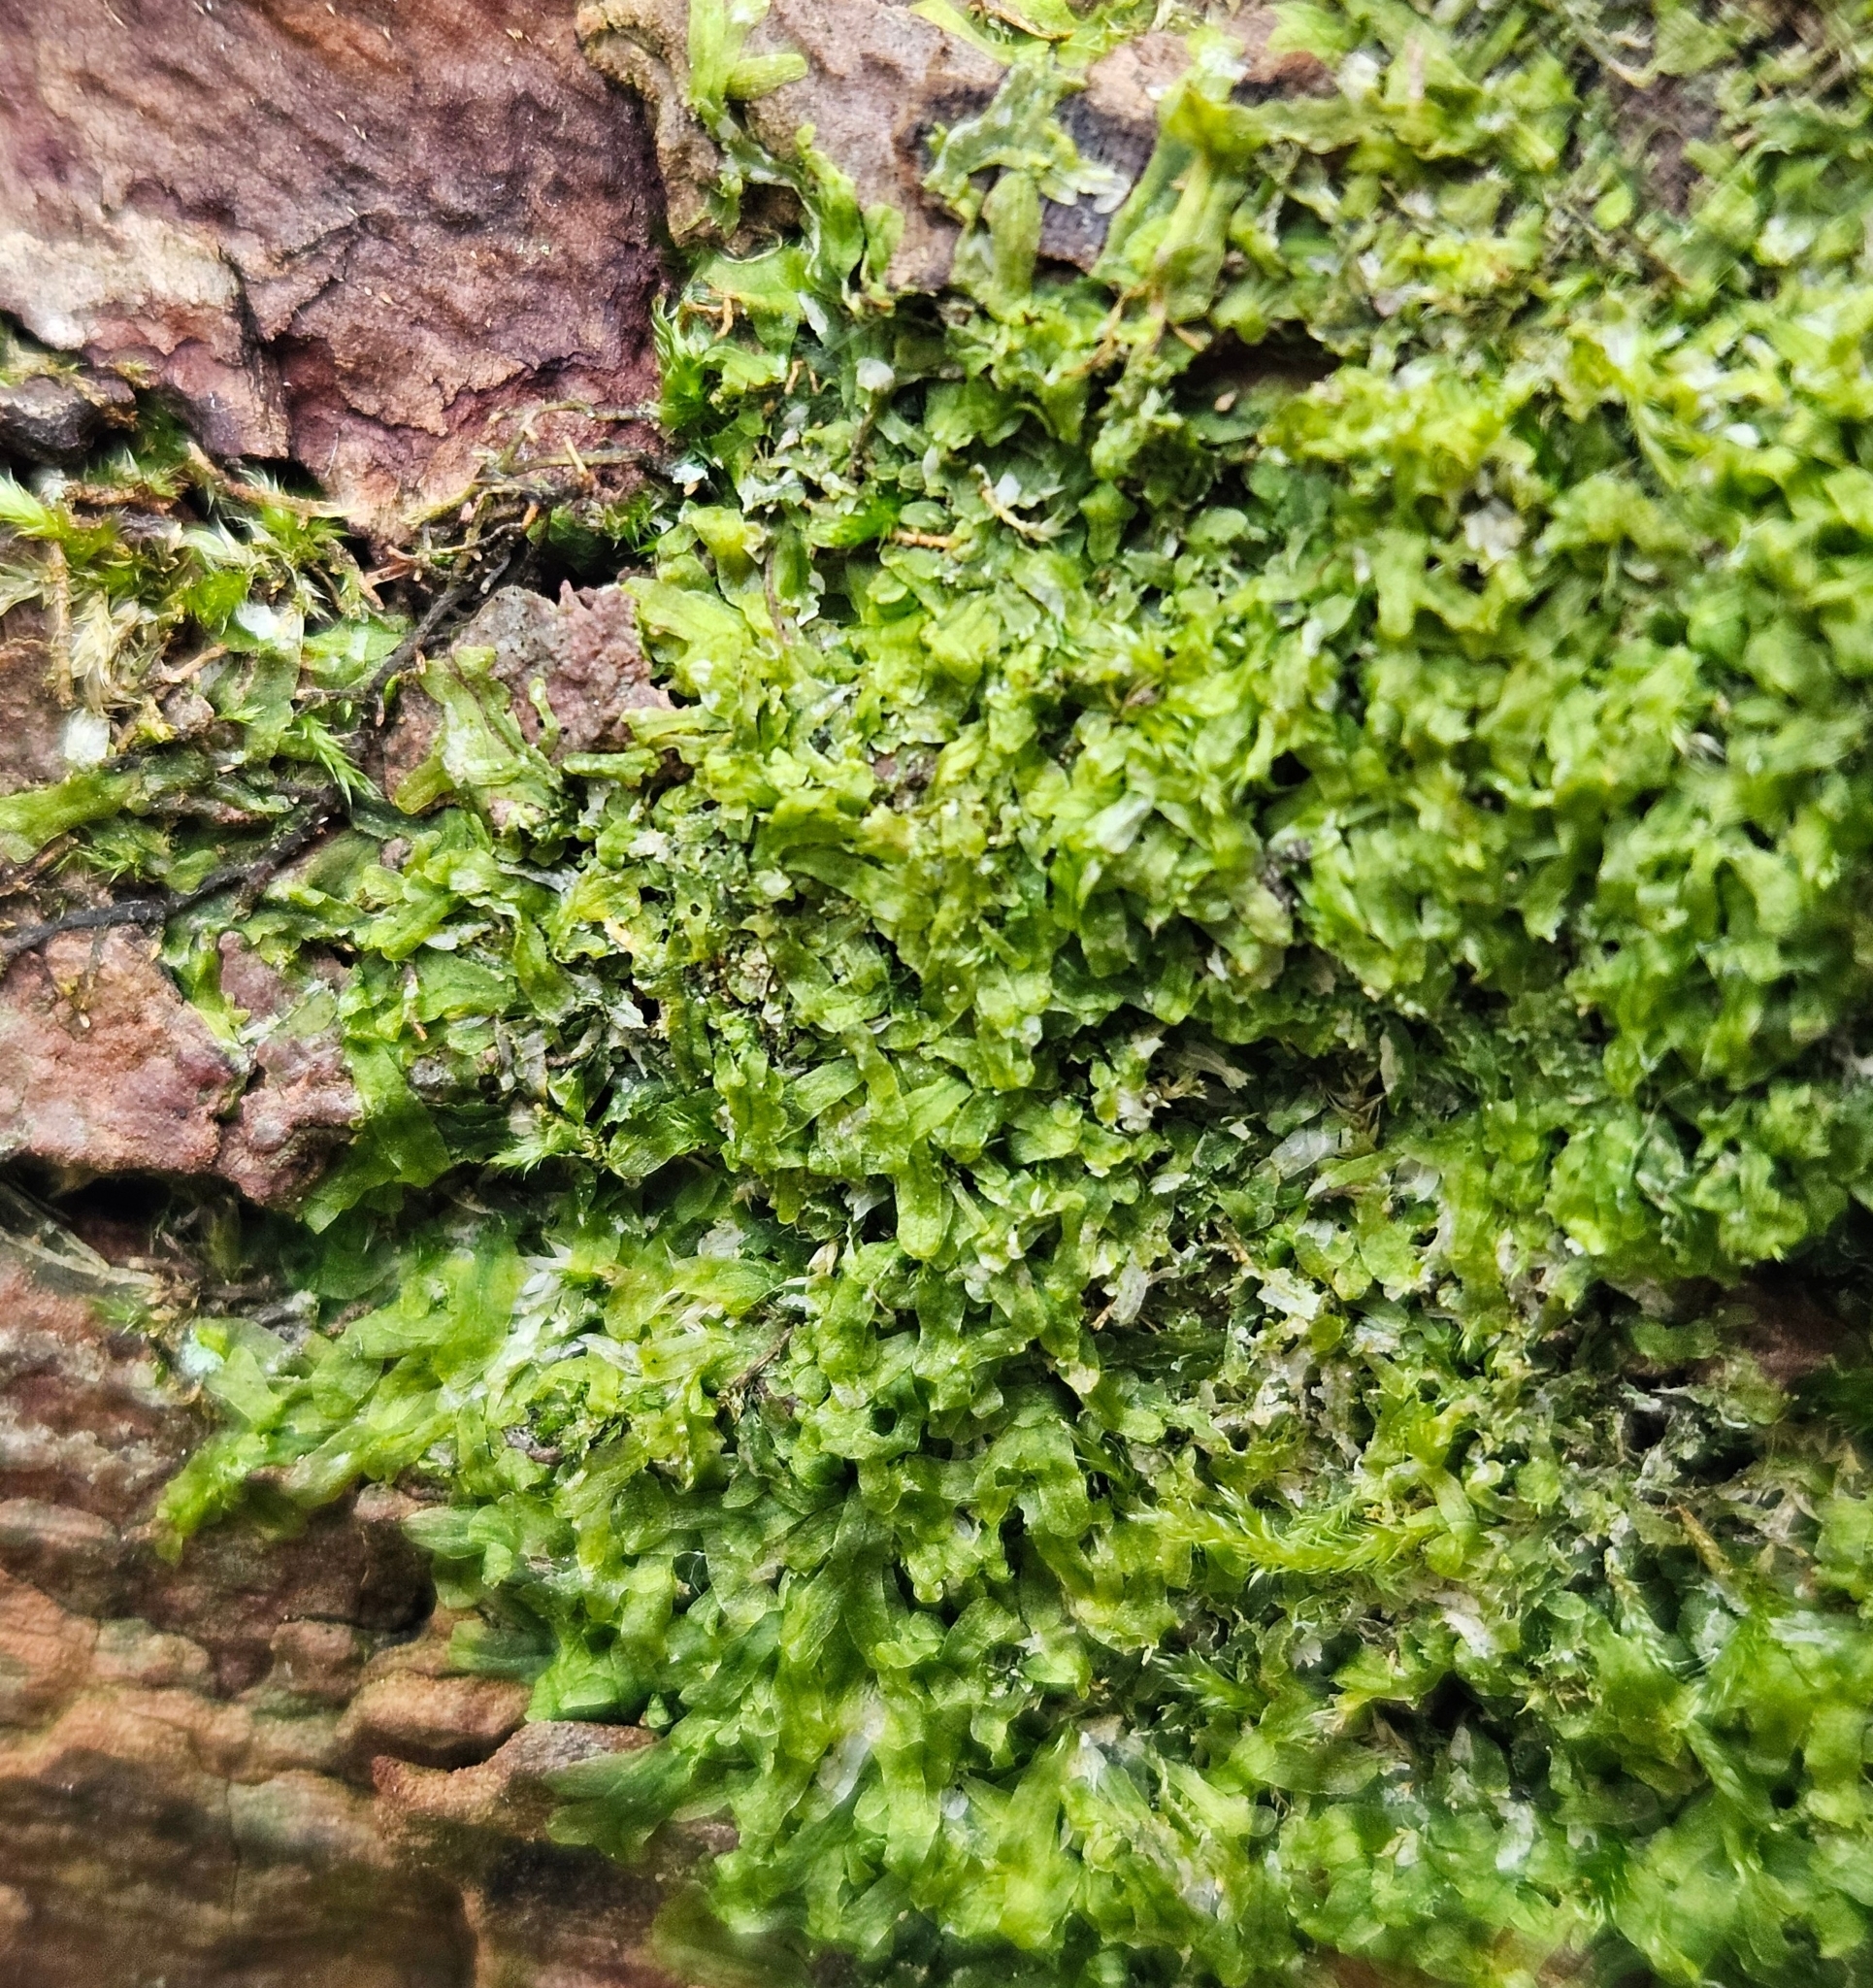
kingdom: Plantae
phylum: Marchantiophyta
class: Jungermanniopsida
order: Metzgeriales
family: Metzgeriaceae
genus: Metzgeria
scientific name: Metzgeria furcata
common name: Forked veilwort
